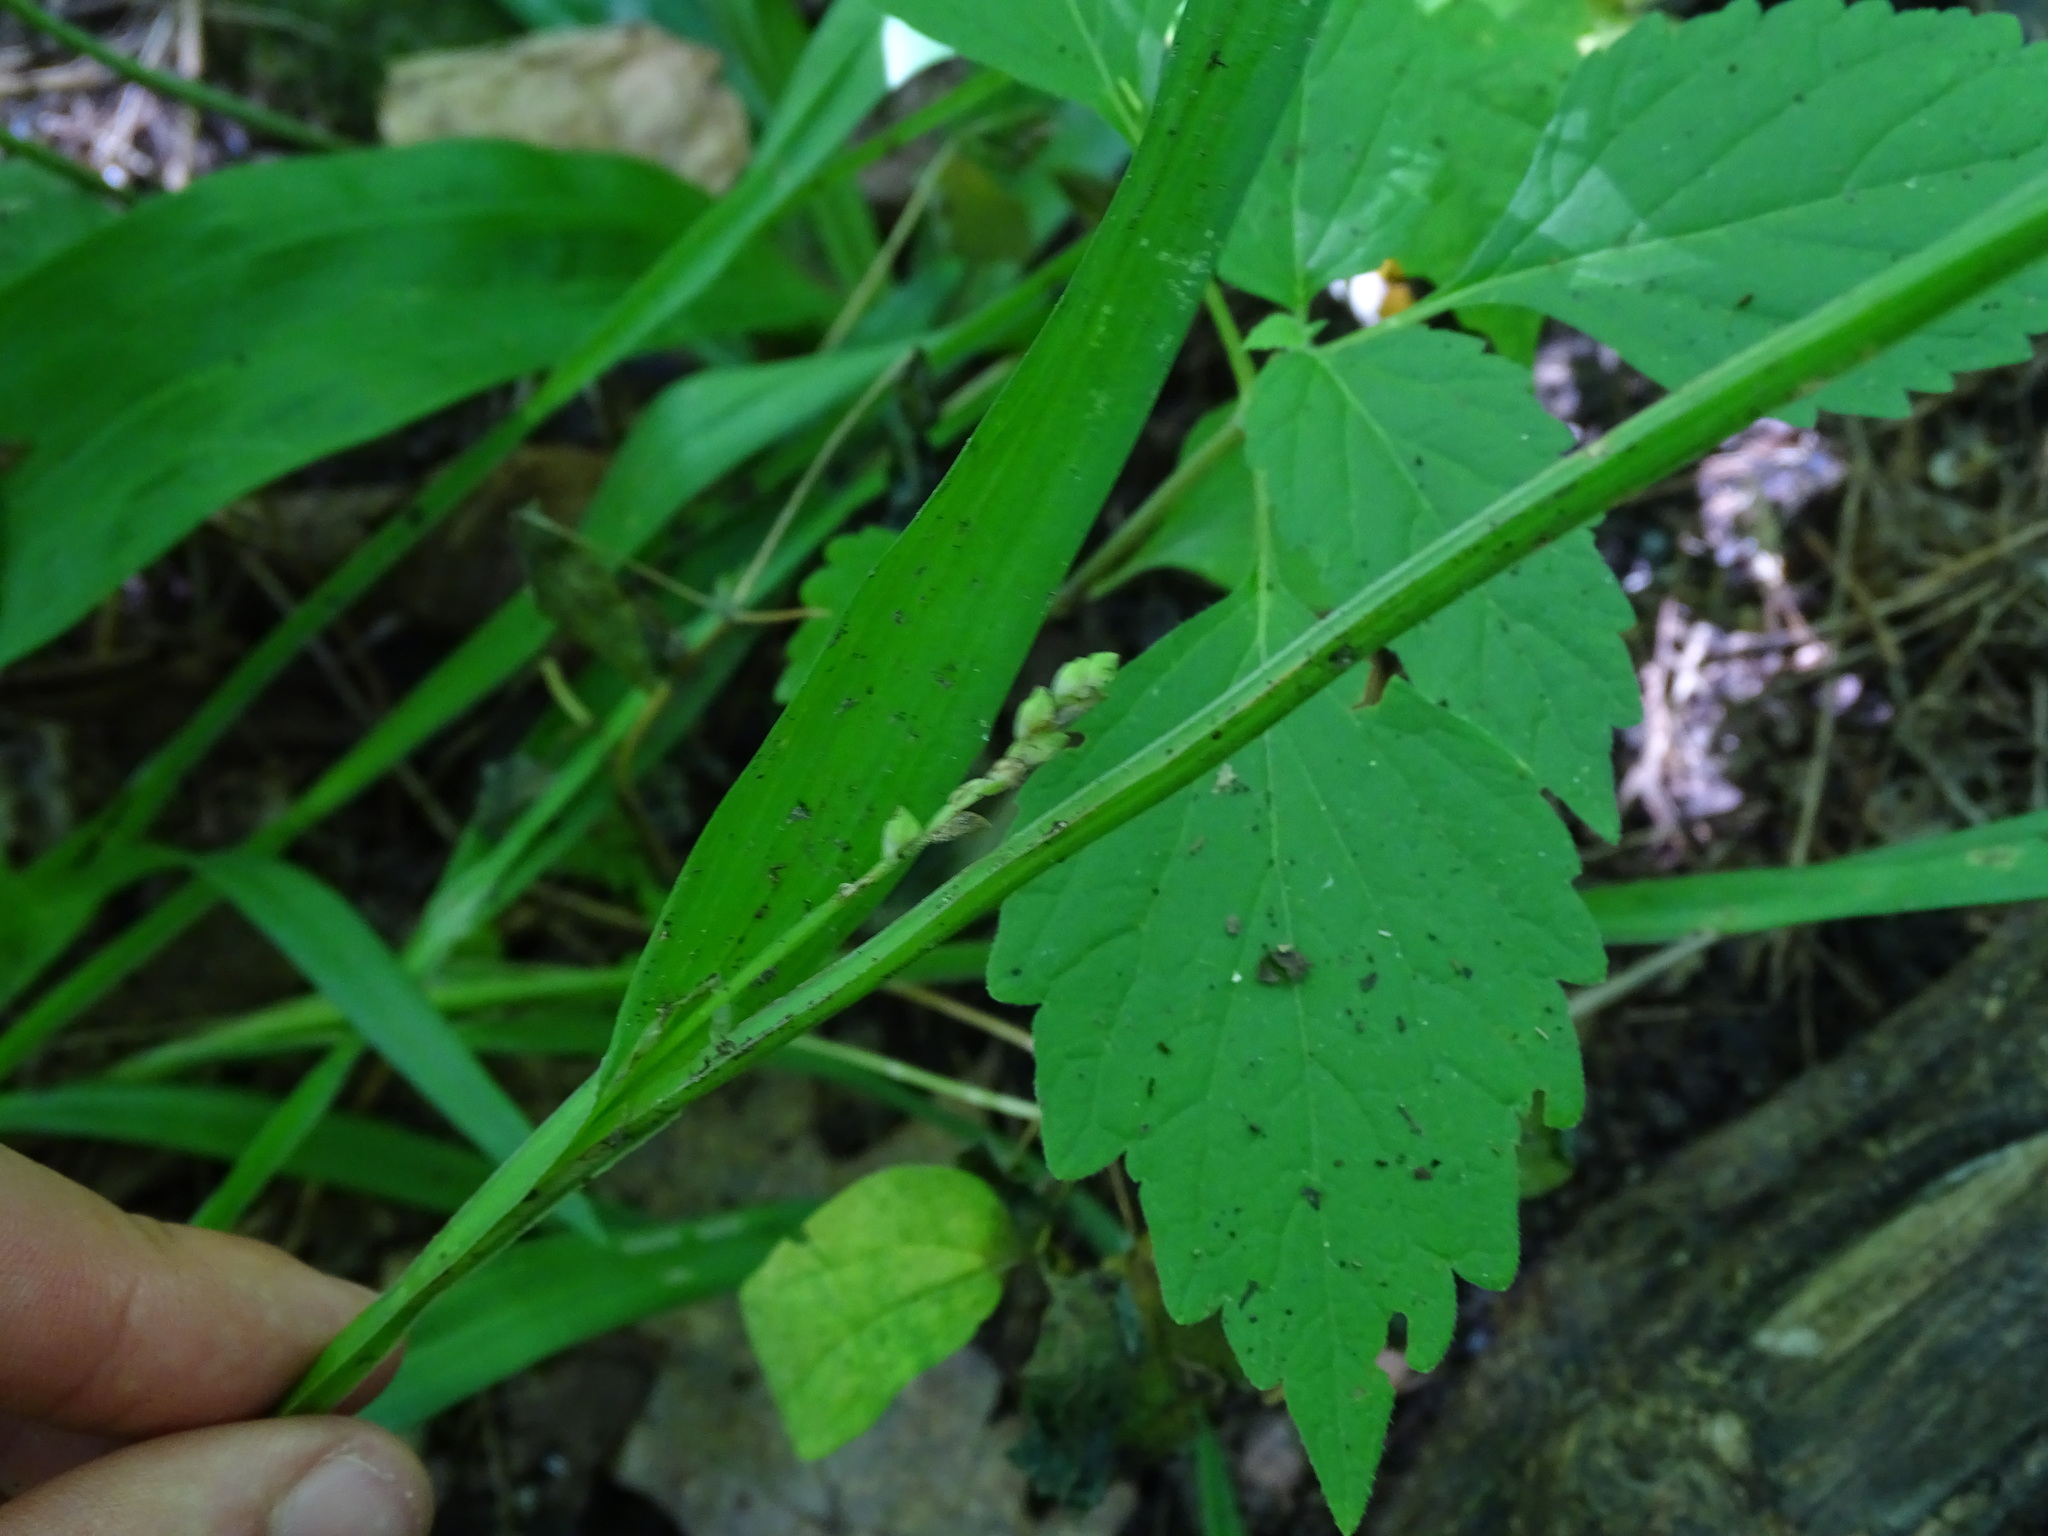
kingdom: Plantae
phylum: Tracheophyta
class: Liliopsida
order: Poales
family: Cyperaceae
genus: Carex
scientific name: Carex albursina
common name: Blunt-scale wood sedge
